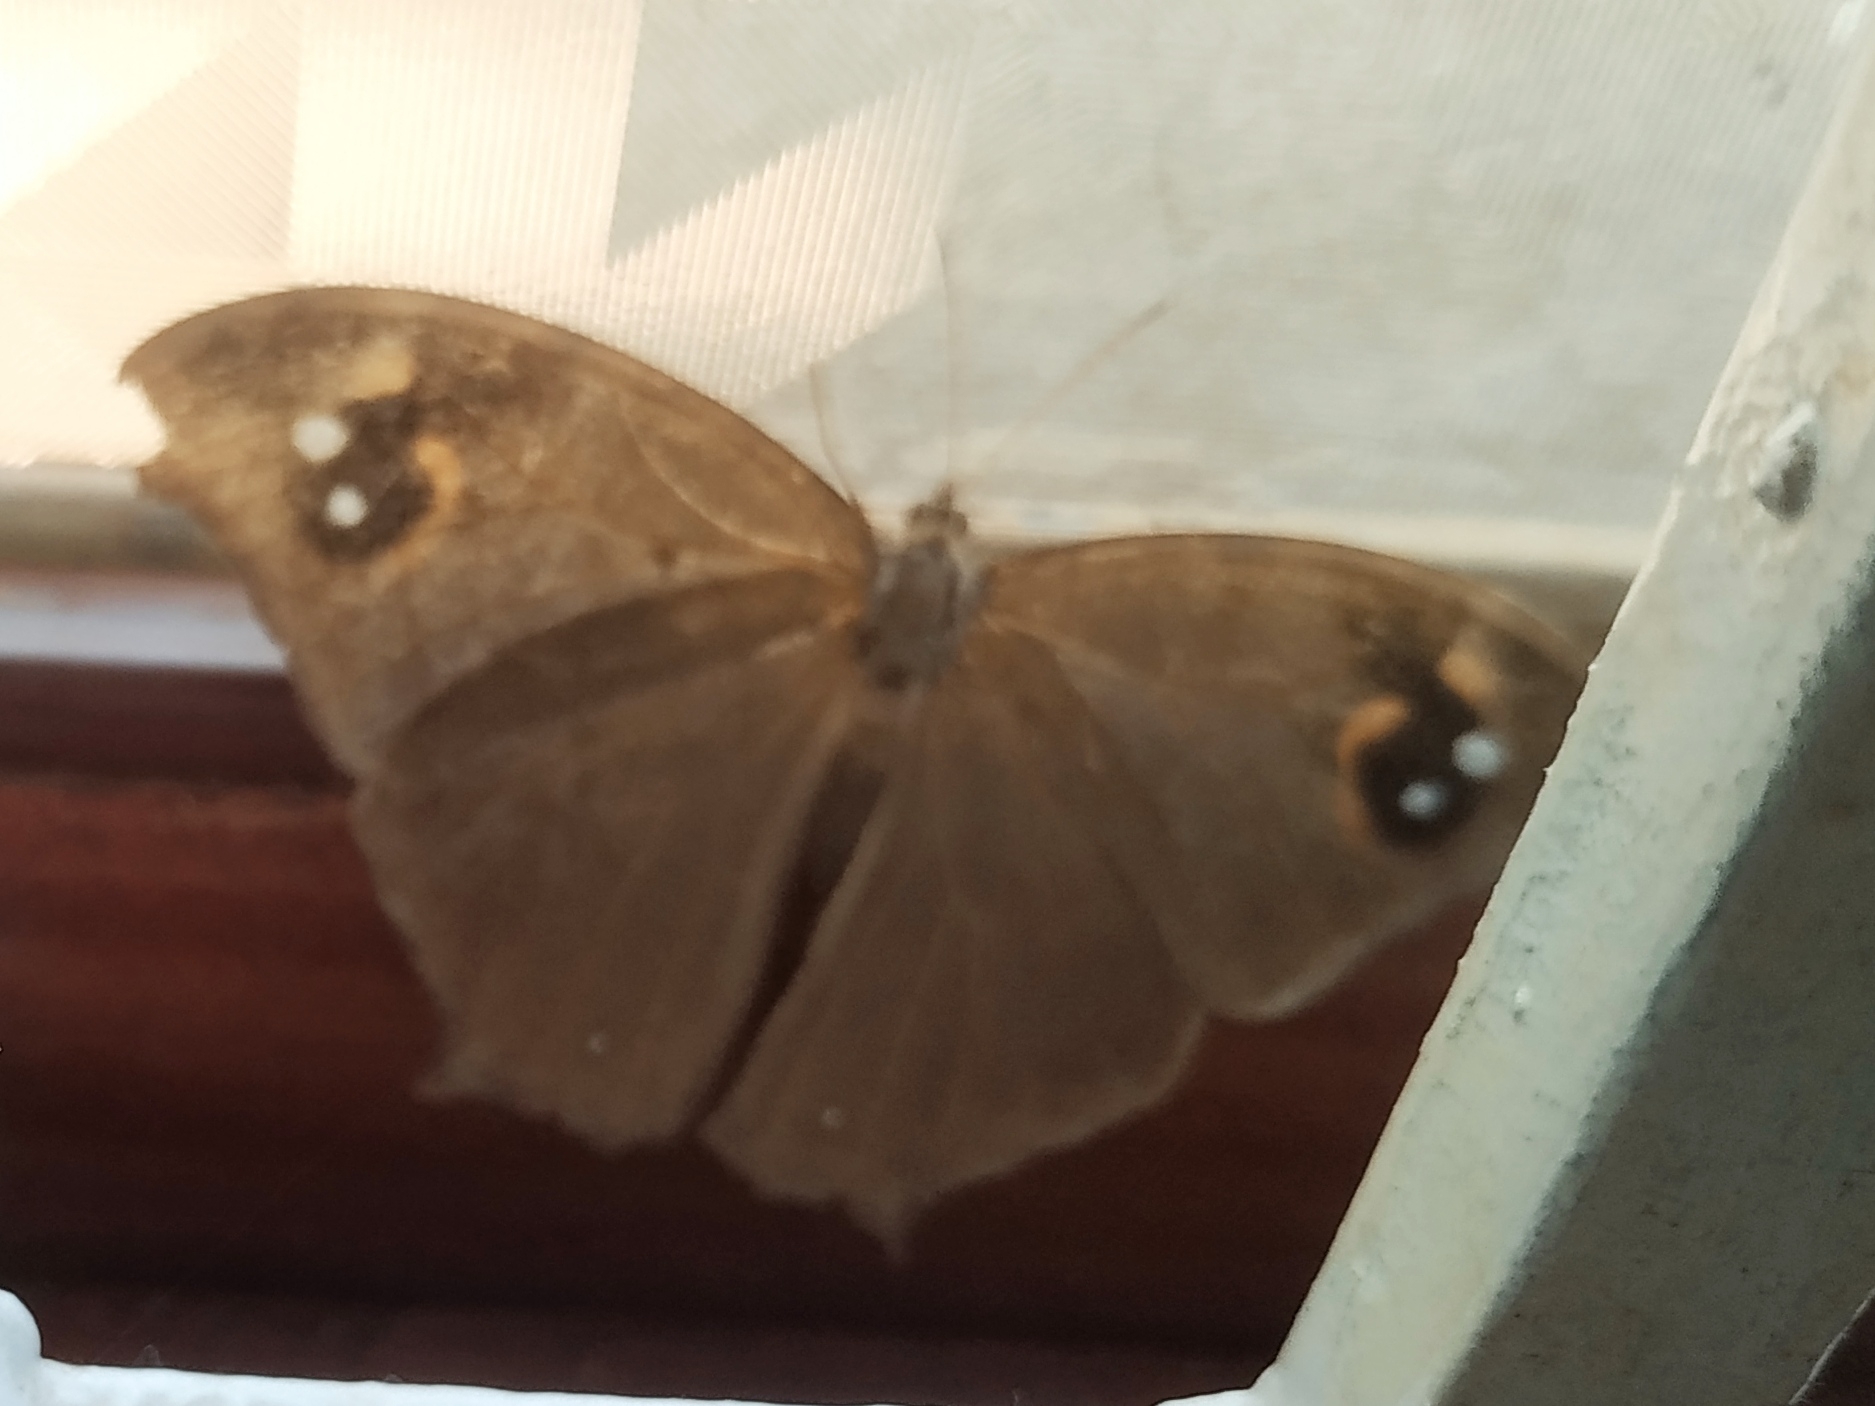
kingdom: Animalia
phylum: Arthropoda
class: Insecta
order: Lepidoptera
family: Nymphalidae
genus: Melanitis
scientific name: Melanitis leda
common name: Twilight brown
